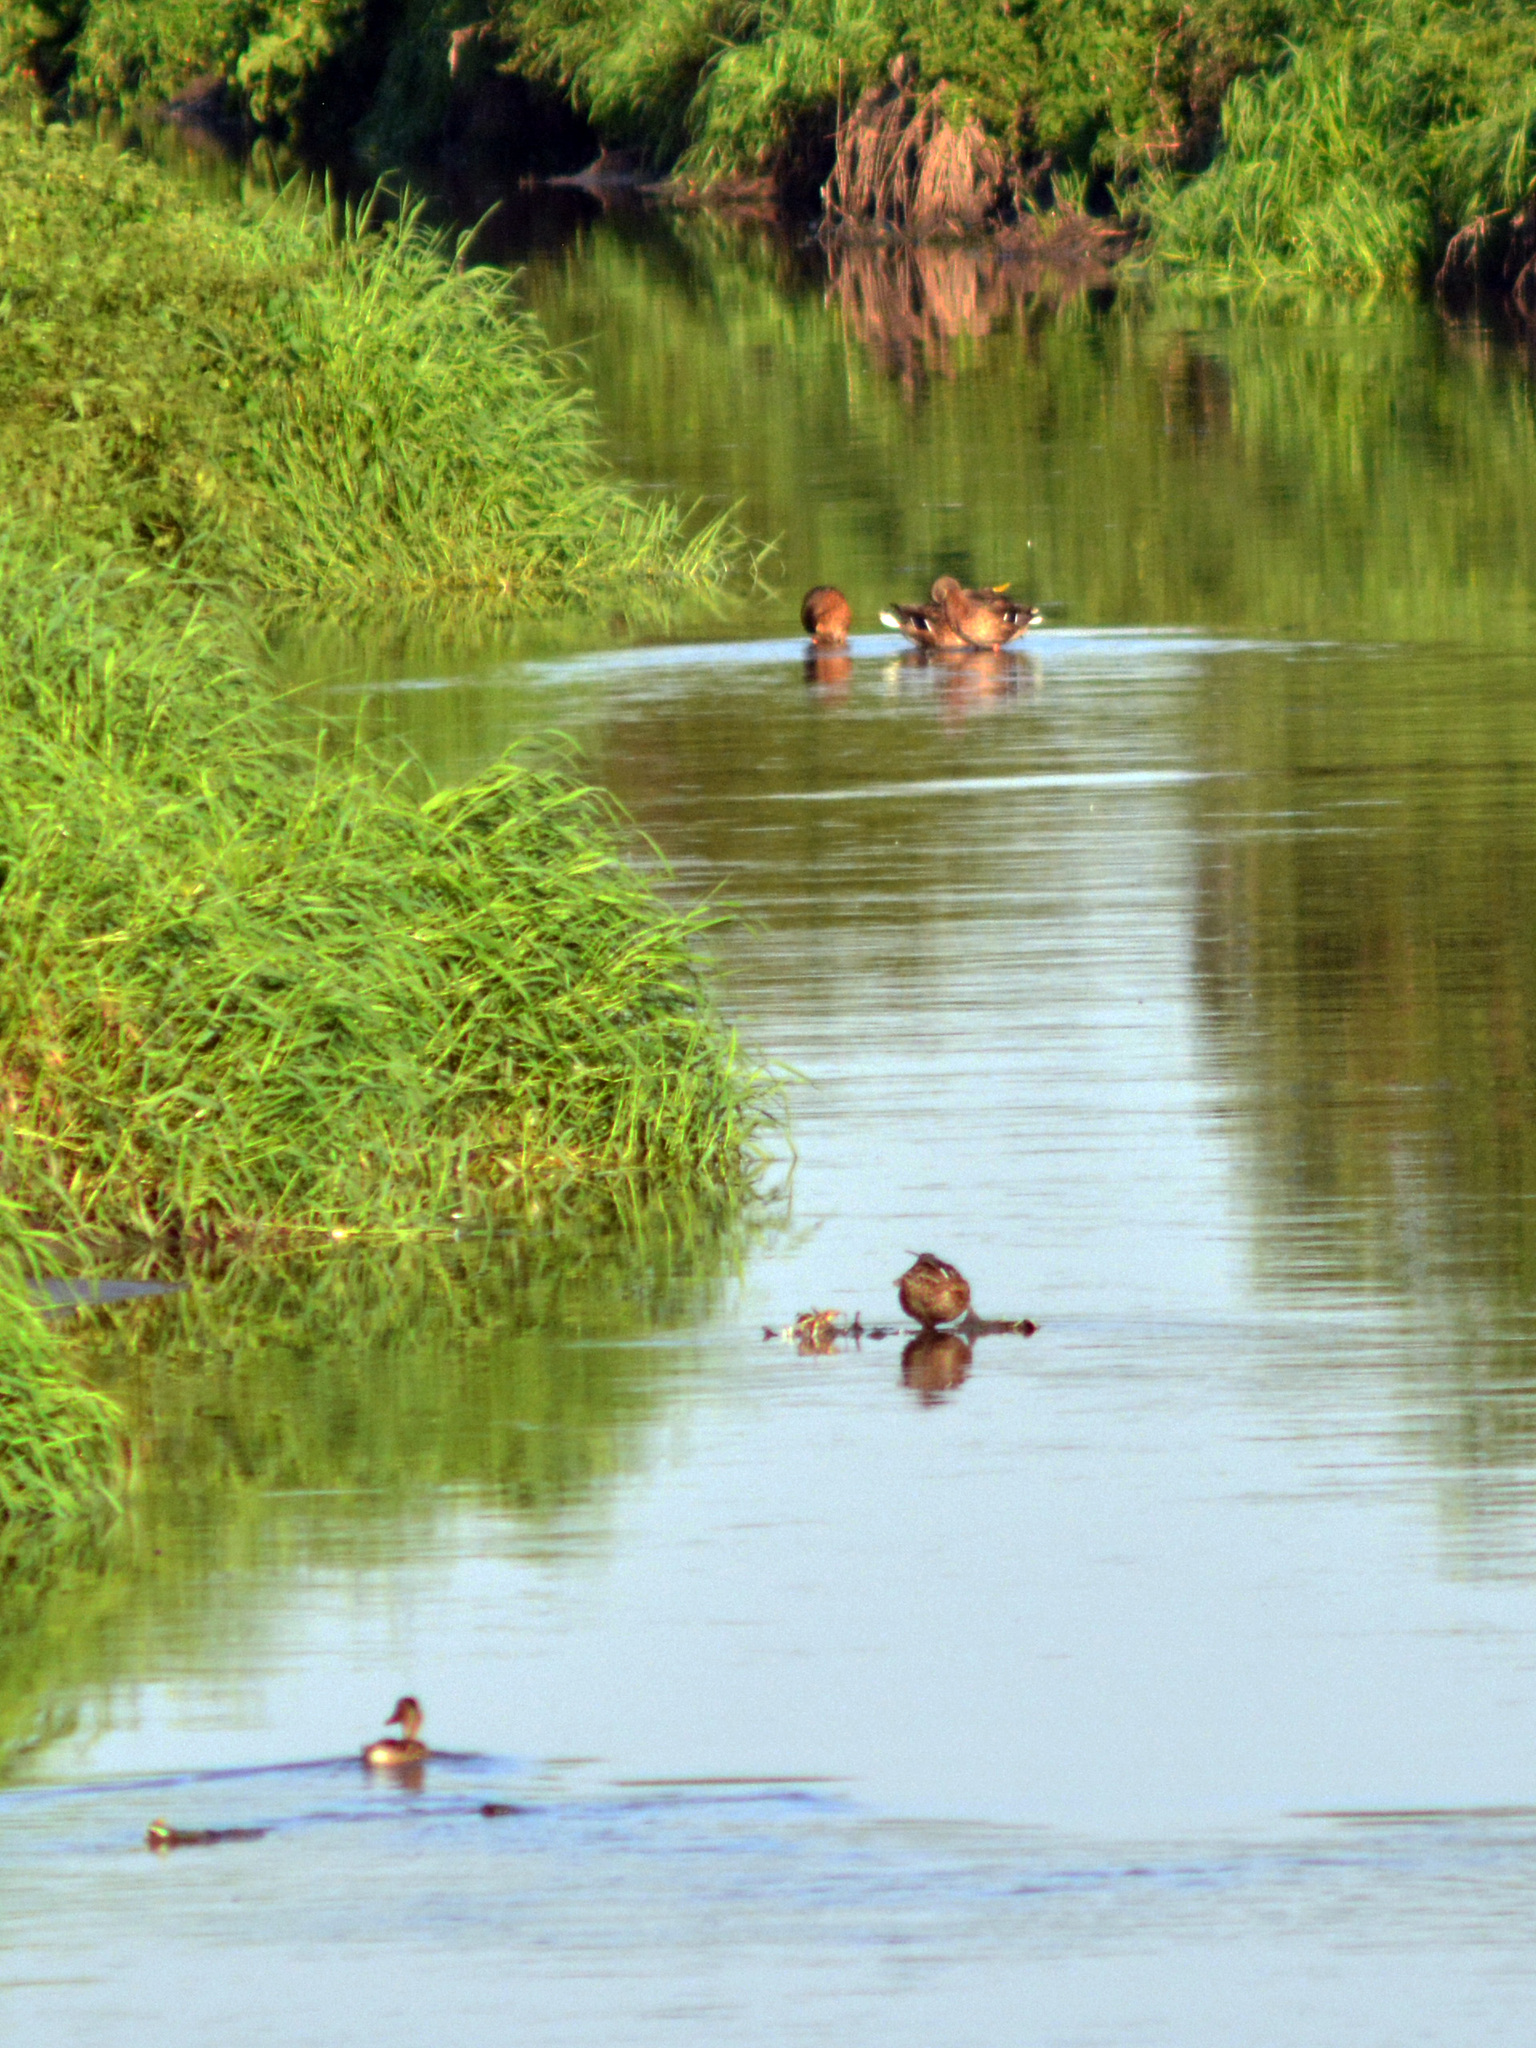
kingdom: Animalia
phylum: Chordata
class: Aves
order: Anseriformes
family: Anatidae
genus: Anas
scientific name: Anas platyrhynchos
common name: Mallard
